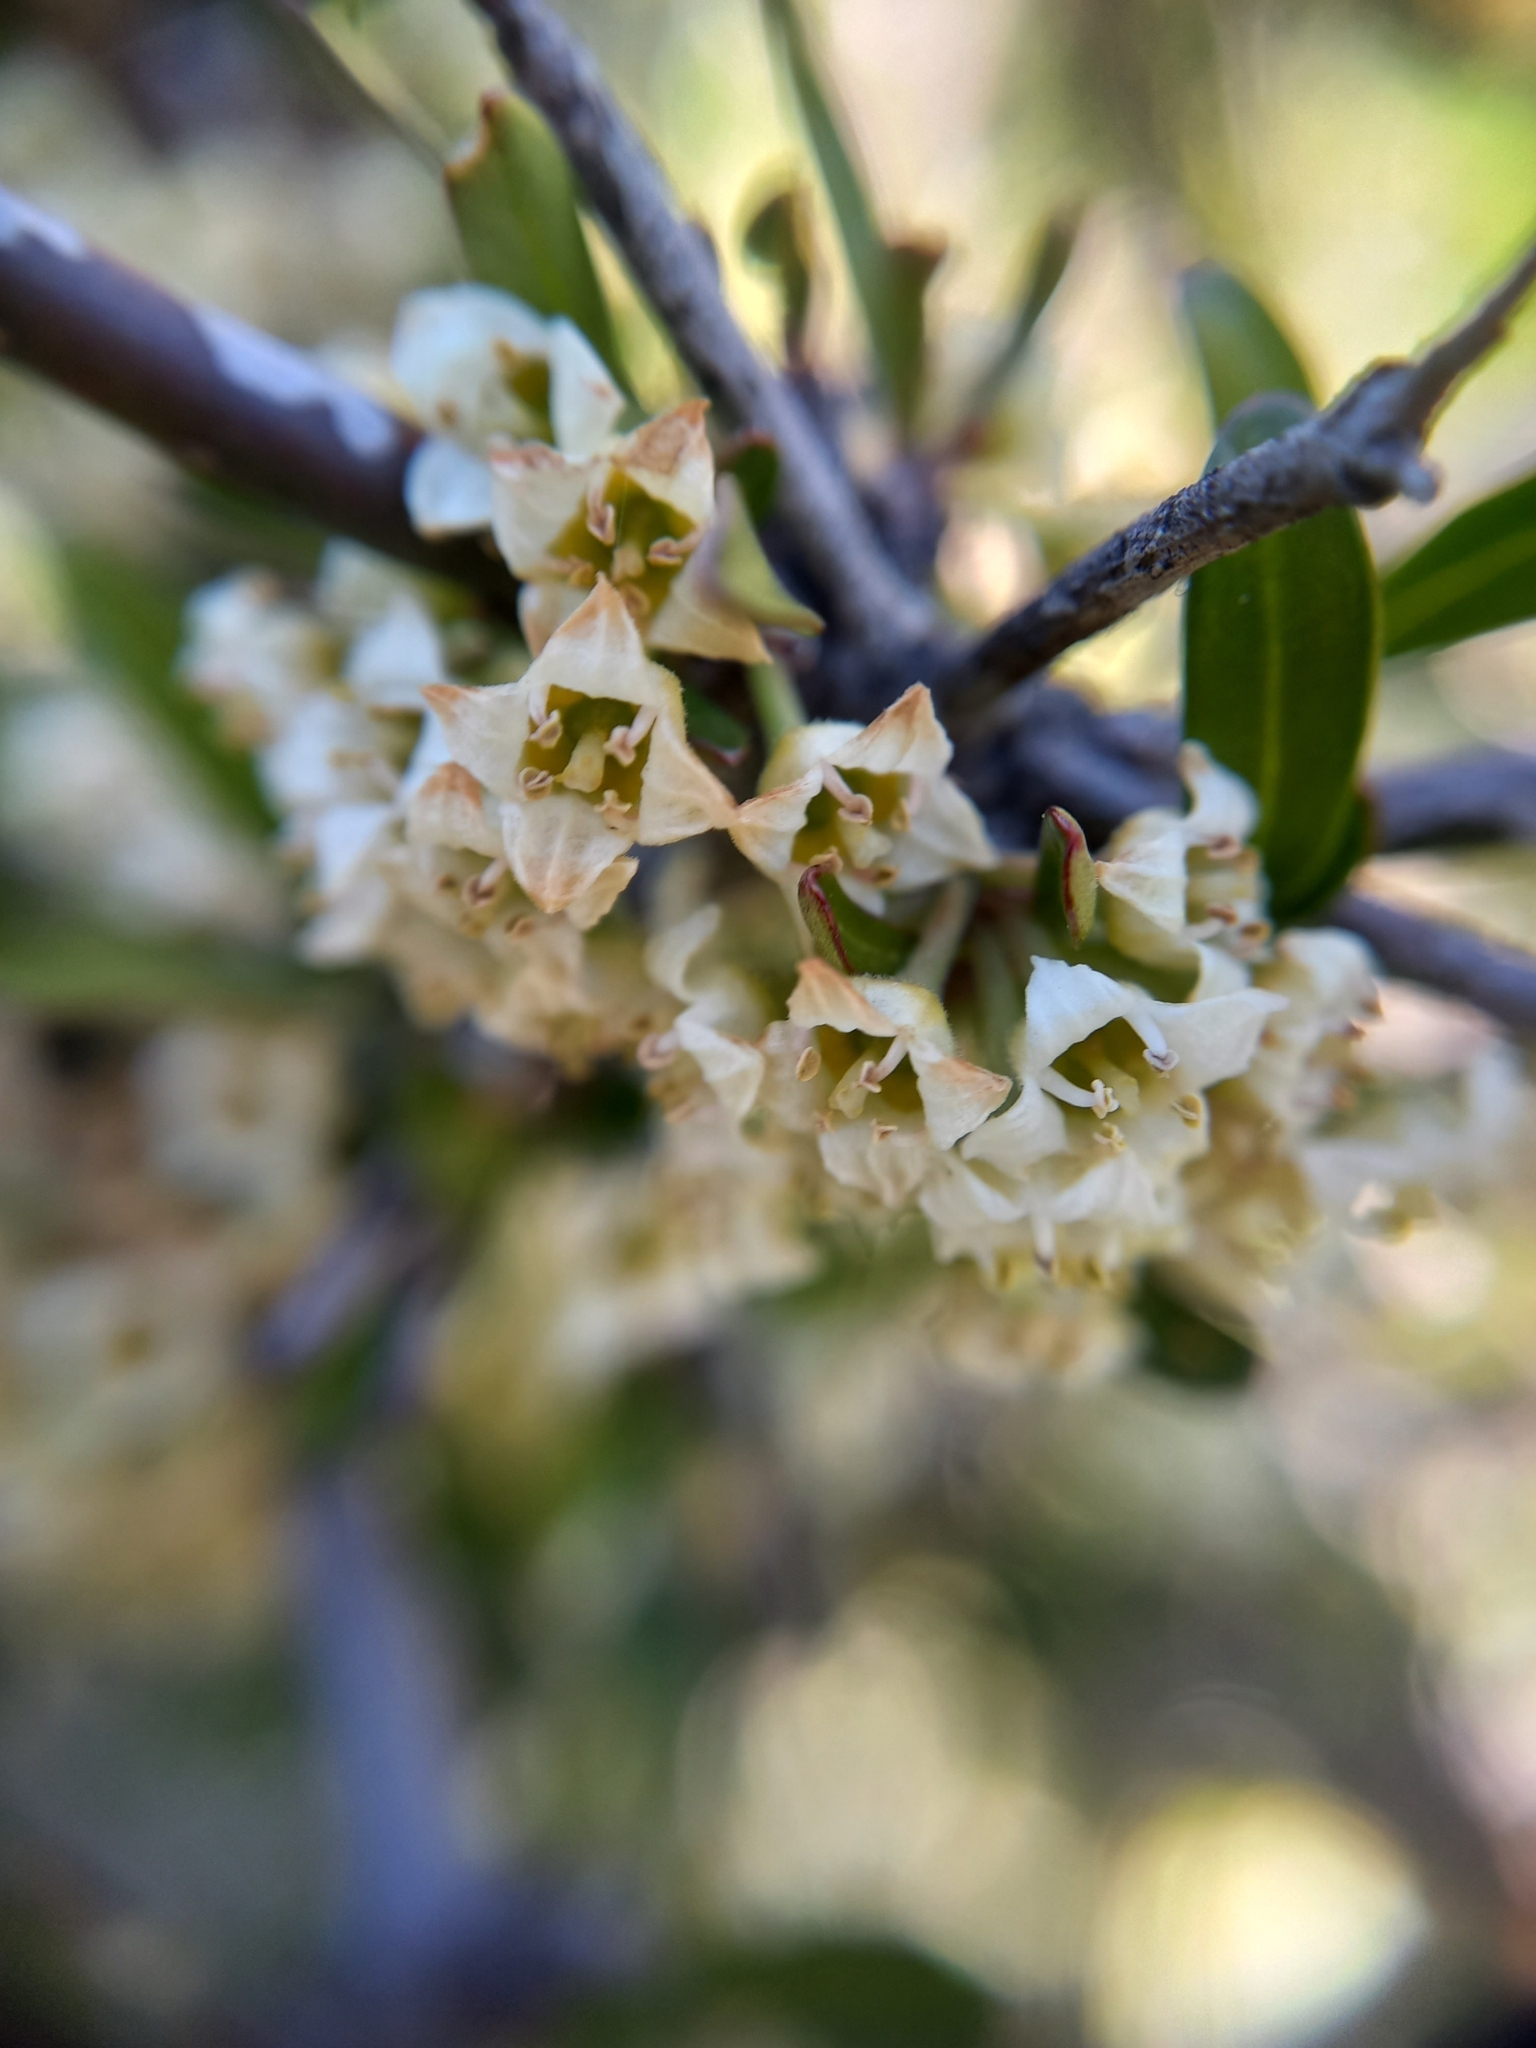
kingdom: Plantae
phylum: Tracheophyta
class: Magnoliopsida
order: Rosales
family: Rhamnaceae
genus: Discaria
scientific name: Discaria toumatou
